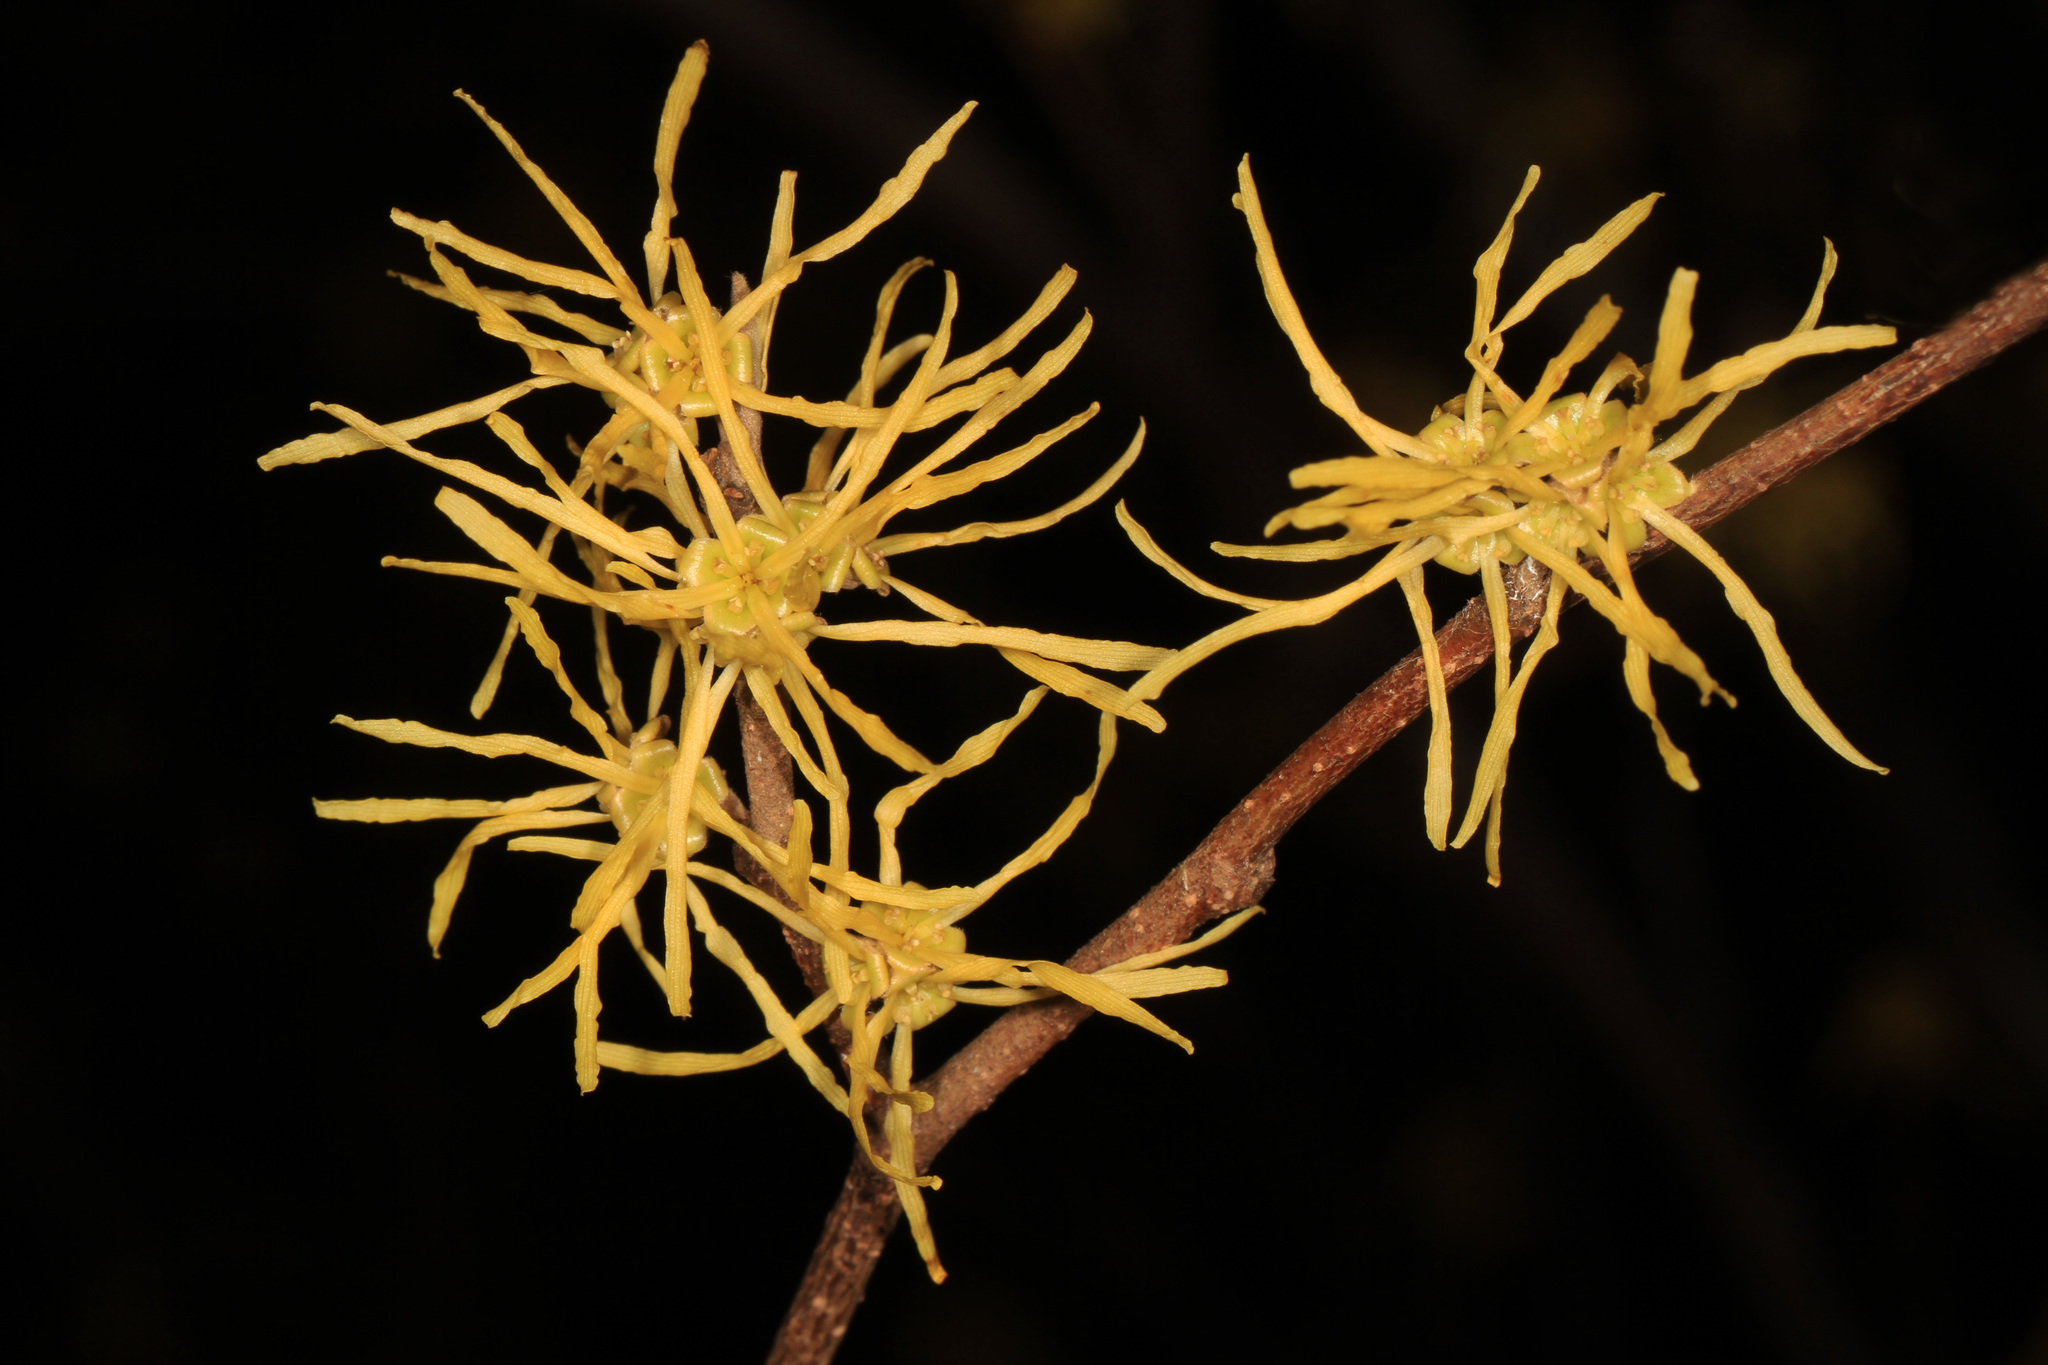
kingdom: Plantae
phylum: Tracheophyta
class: Magnoliopsida
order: Saxifragales
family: Hamamelidaceae
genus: Hamamelis
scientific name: Hamamelis virginiana
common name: Witch-hazel
